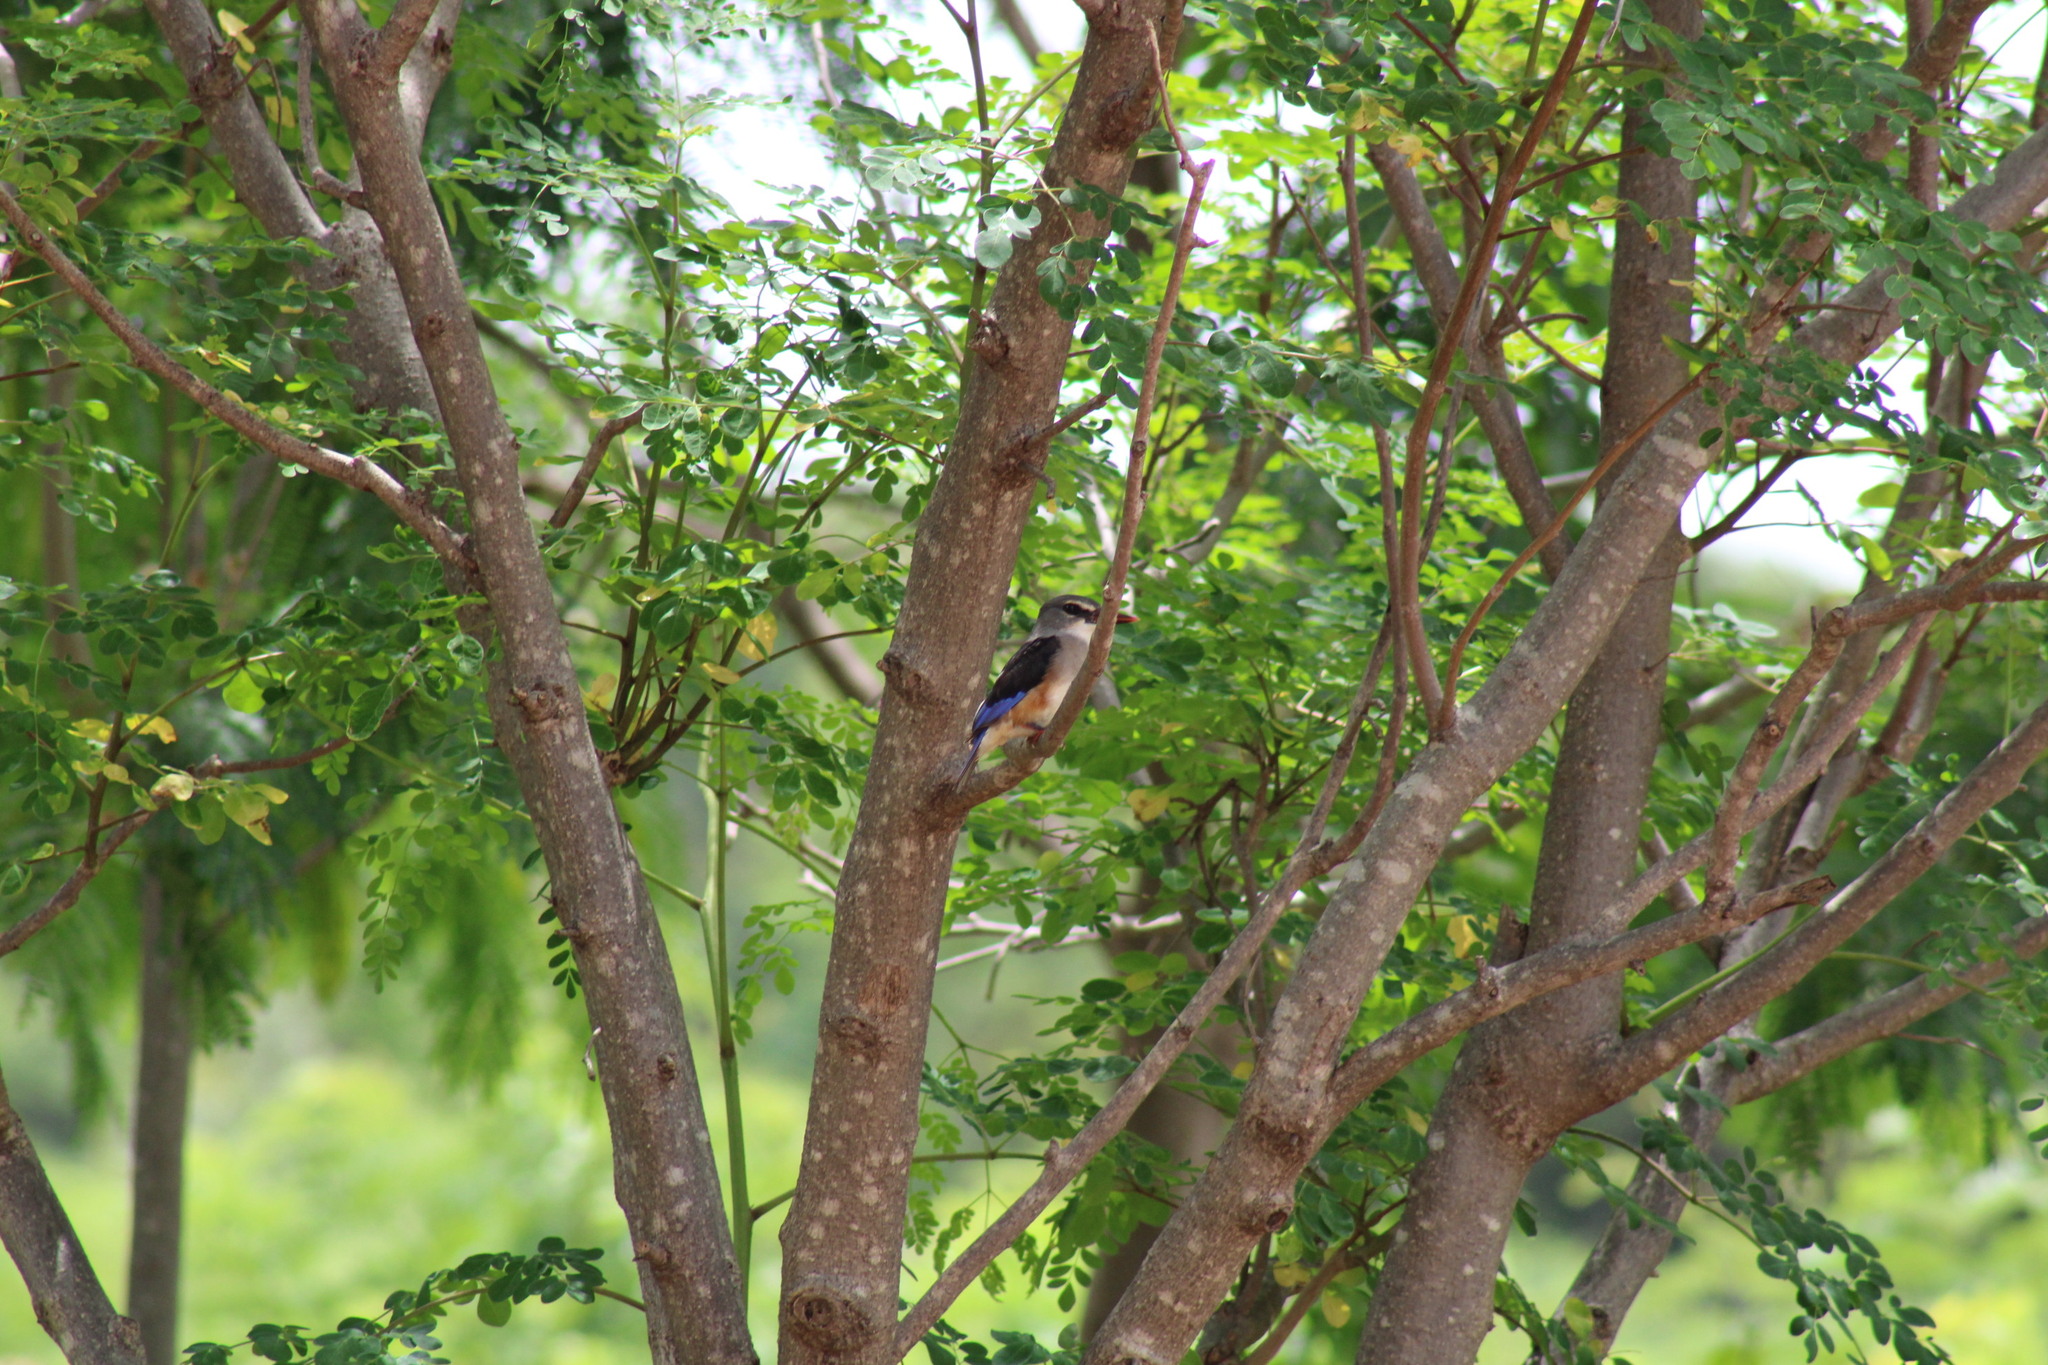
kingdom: Animalia
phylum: Chordata
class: Aves
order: Coraciiformes
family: Alcedinidae
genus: Halcyon
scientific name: Halcyon leucocephala
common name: Grey-headed kingfisher
